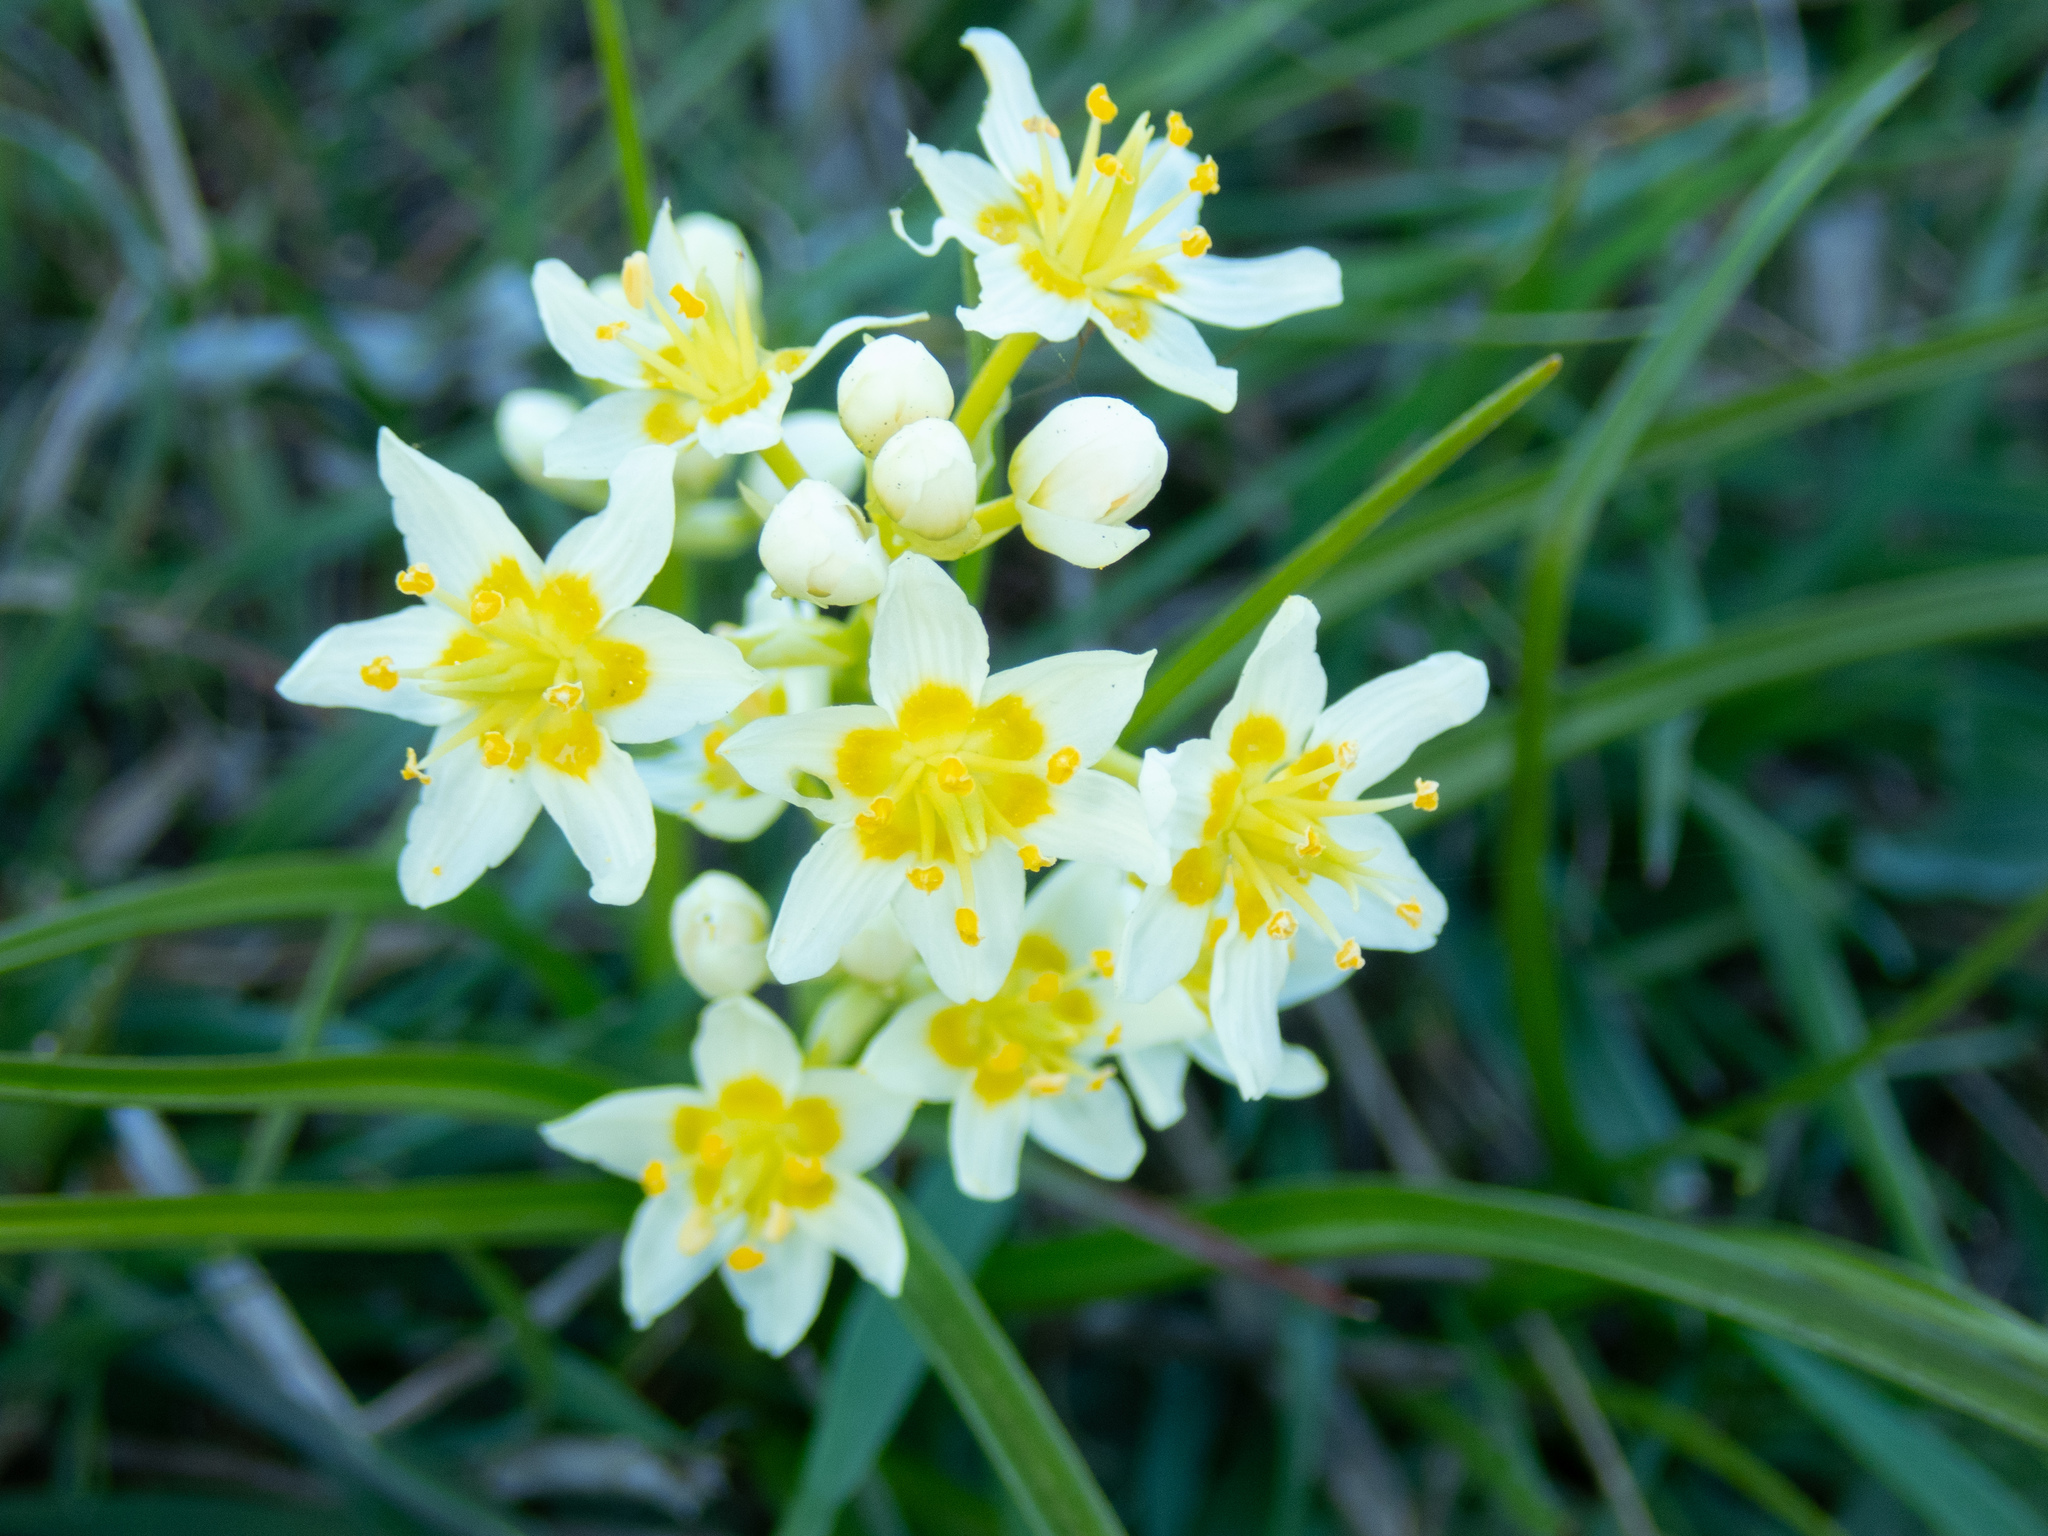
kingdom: Plantae
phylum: Tracheophyta
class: Liliopsida
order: Liliales
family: Melanthiaceae
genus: Toxicoscordion
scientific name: Toxicoscordion fremontii
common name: Fremont's death camas
